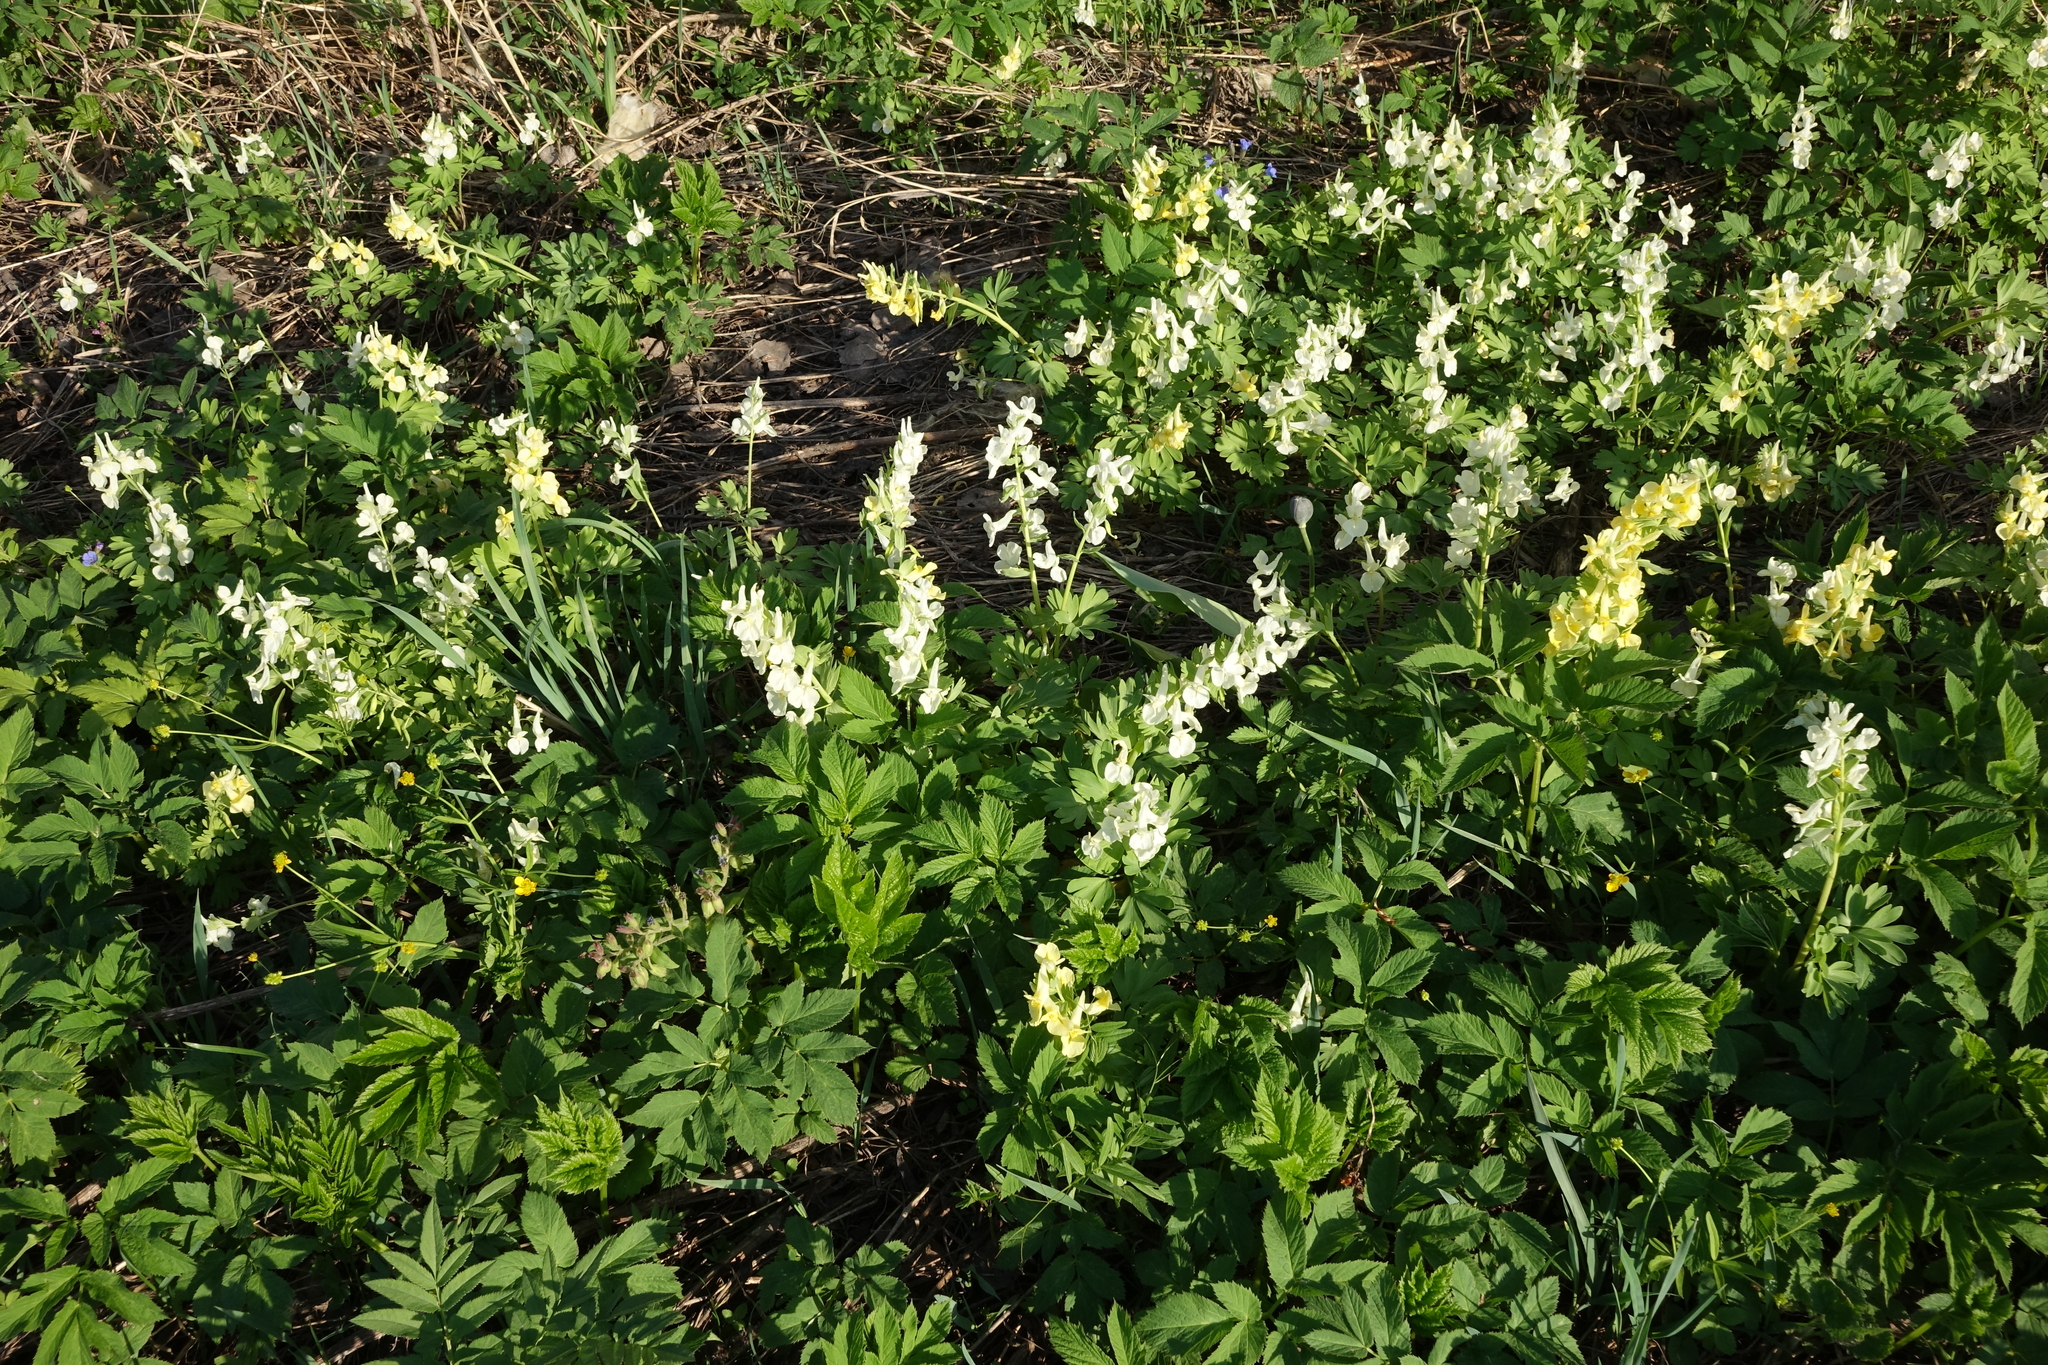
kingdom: Plantae
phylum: Tracheophyta
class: Magnoliopsida
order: Ranunculales
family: Papaveraceae
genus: Corydalis
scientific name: Corydalis bracteata
